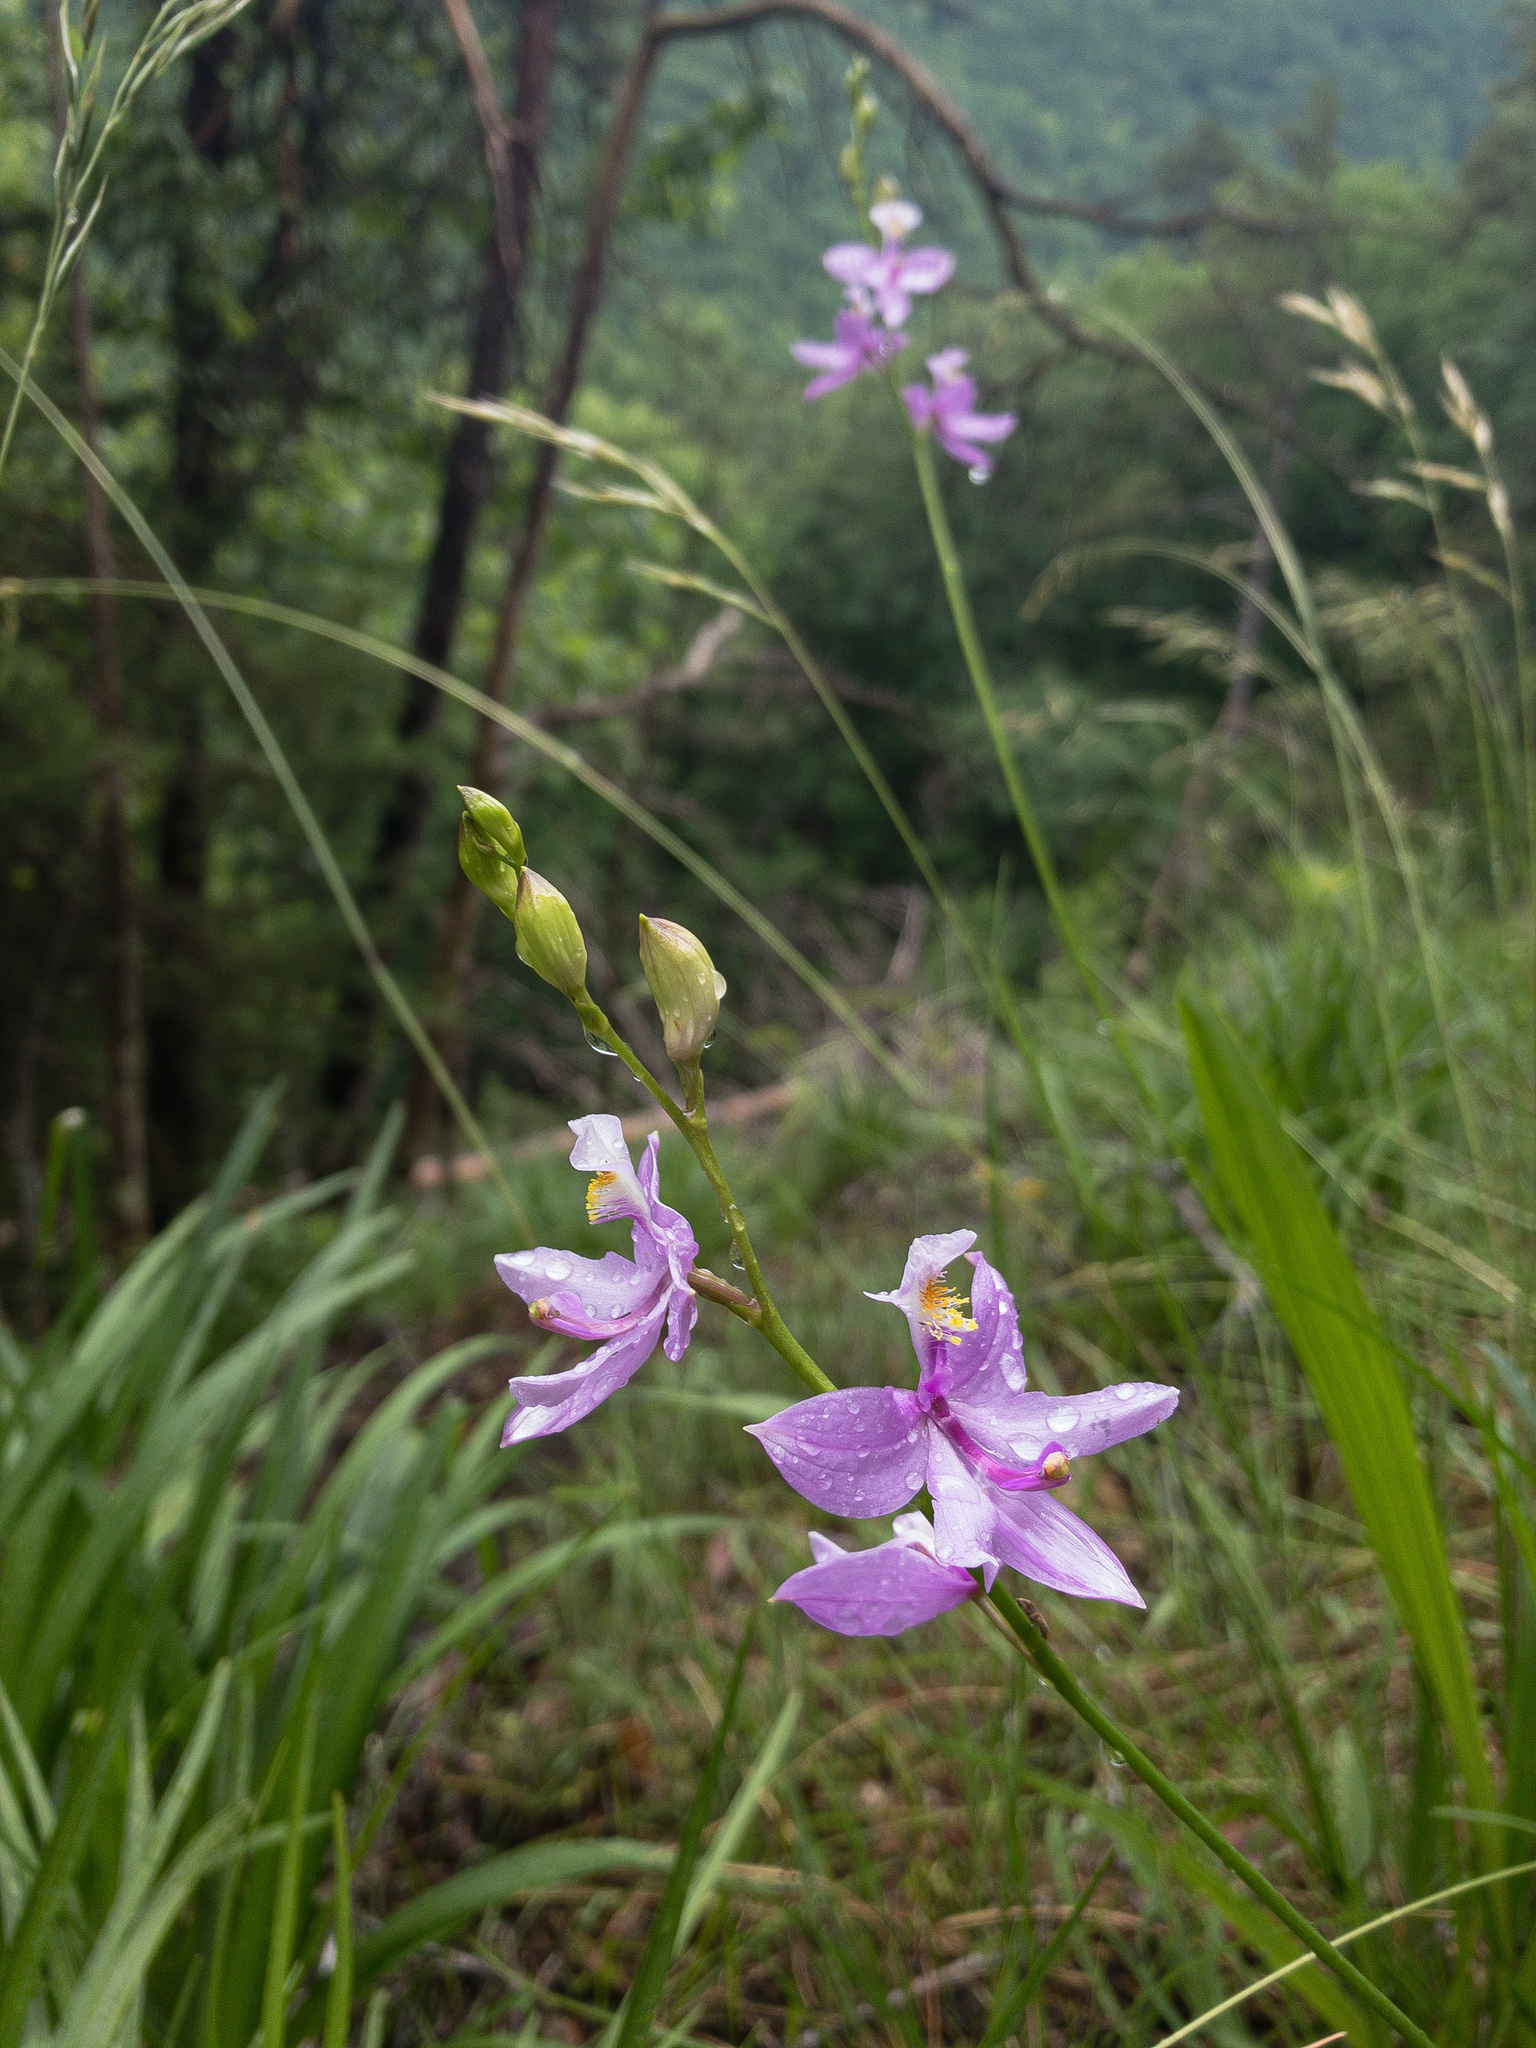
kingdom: Plantae
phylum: Tracheophyta
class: Liliopsida
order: Asparagales
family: Orchidaceae
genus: Calopogon
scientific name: Calopogon tuberosus
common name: Grass-pink
